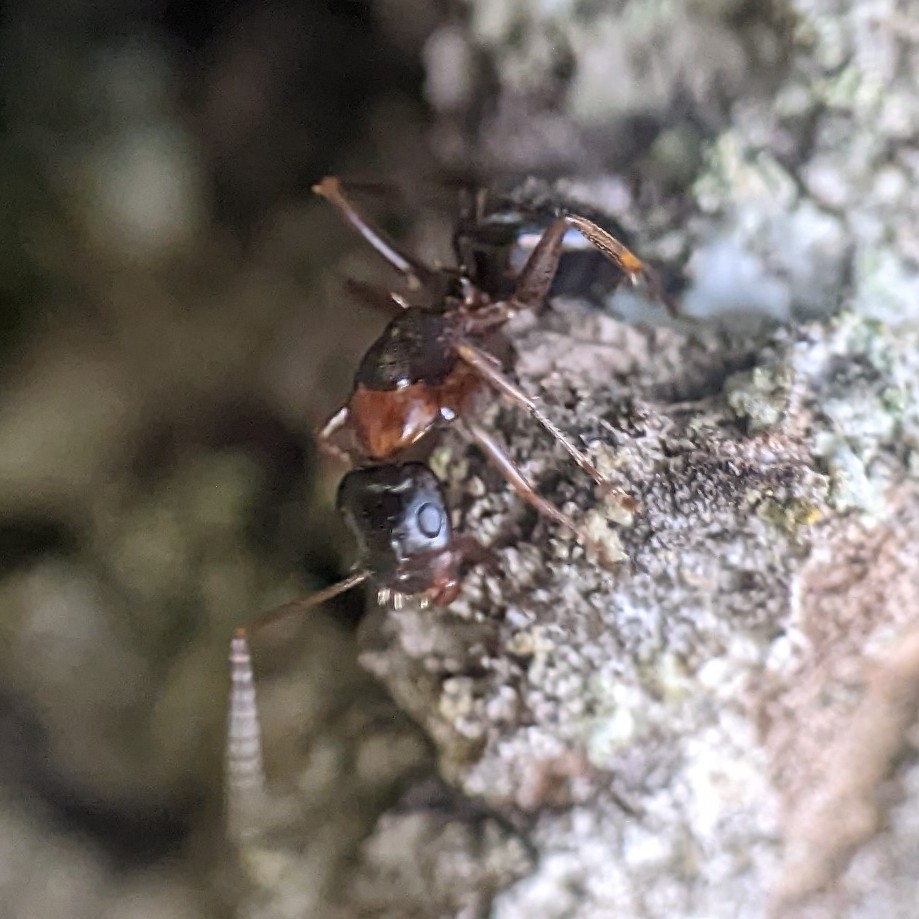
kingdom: Animalia
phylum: Arthropoda
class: Insecta
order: Hymenoptera
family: Formicidae
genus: Camponotus
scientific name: Camponotus nearcticus
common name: Smaller carpenter ant
